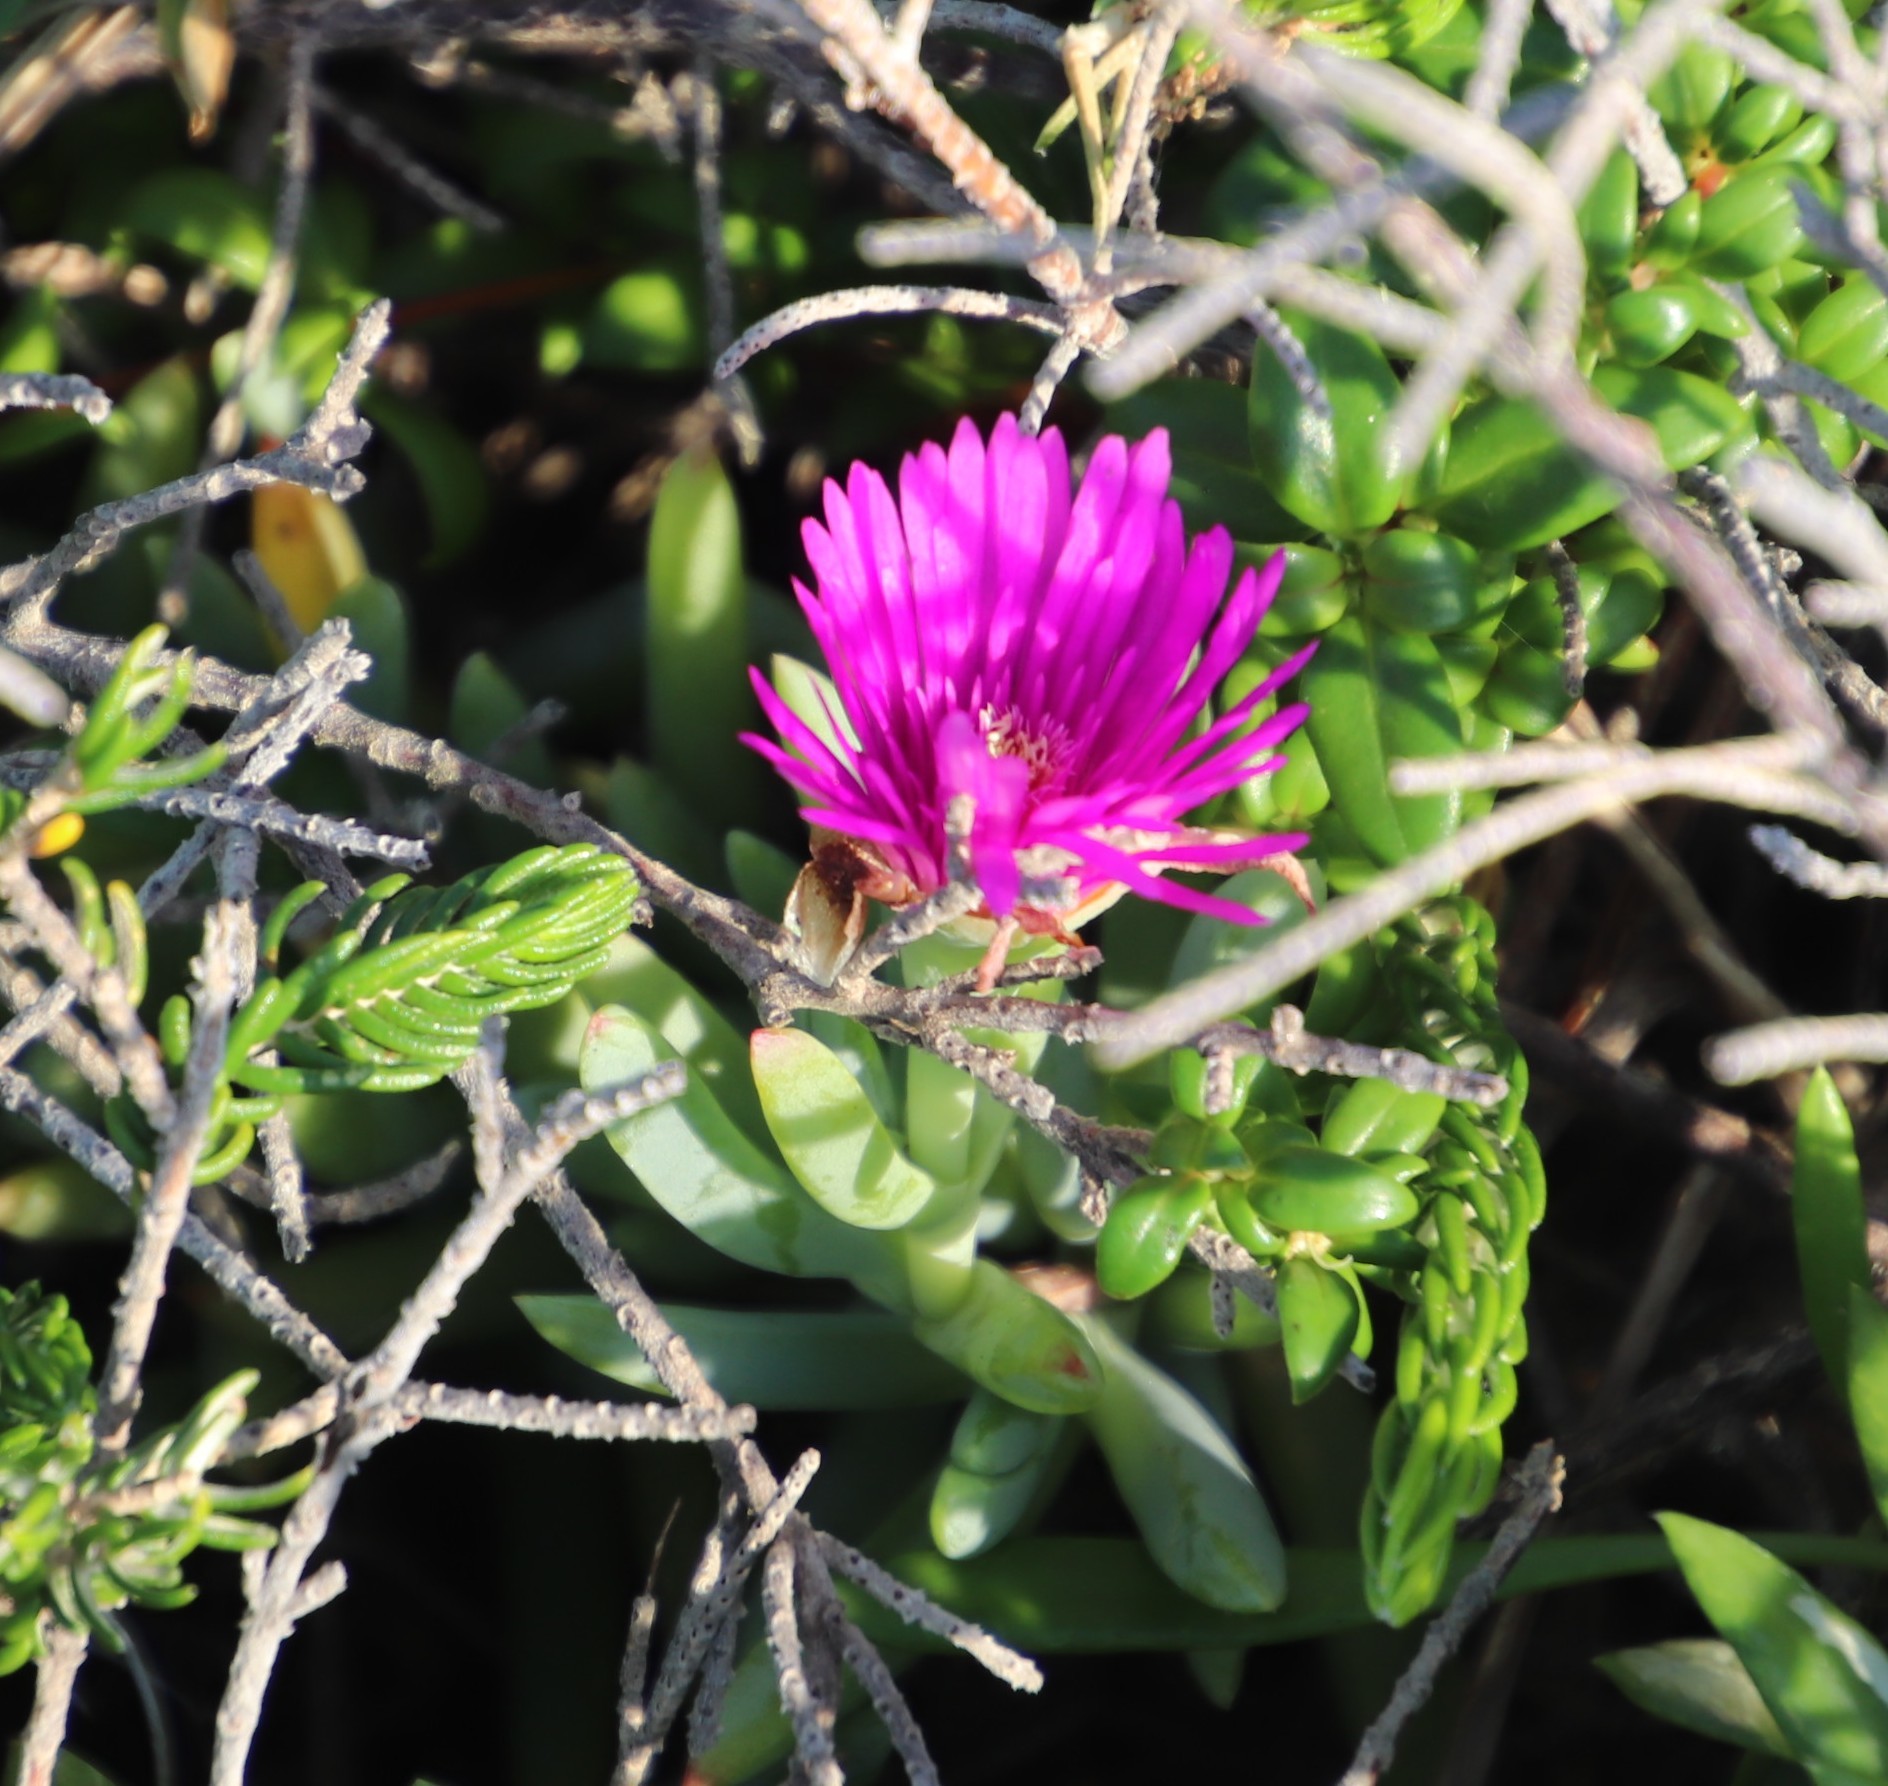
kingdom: Plantae
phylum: Tracheophyta
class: Magnoliopsida
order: Caryophyllales
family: Aizoaceae
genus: Lampranthus
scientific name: Lampranthus fugitans
